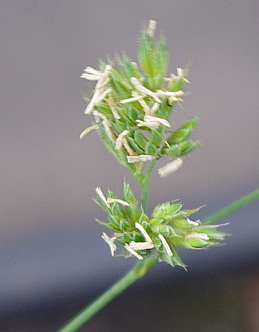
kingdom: Plantae
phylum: Tracheophyta
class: Liliopsida
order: Poales
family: Poaceae
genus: Dactylis
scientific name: Dactylis glomerata
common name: Orchardgrass
